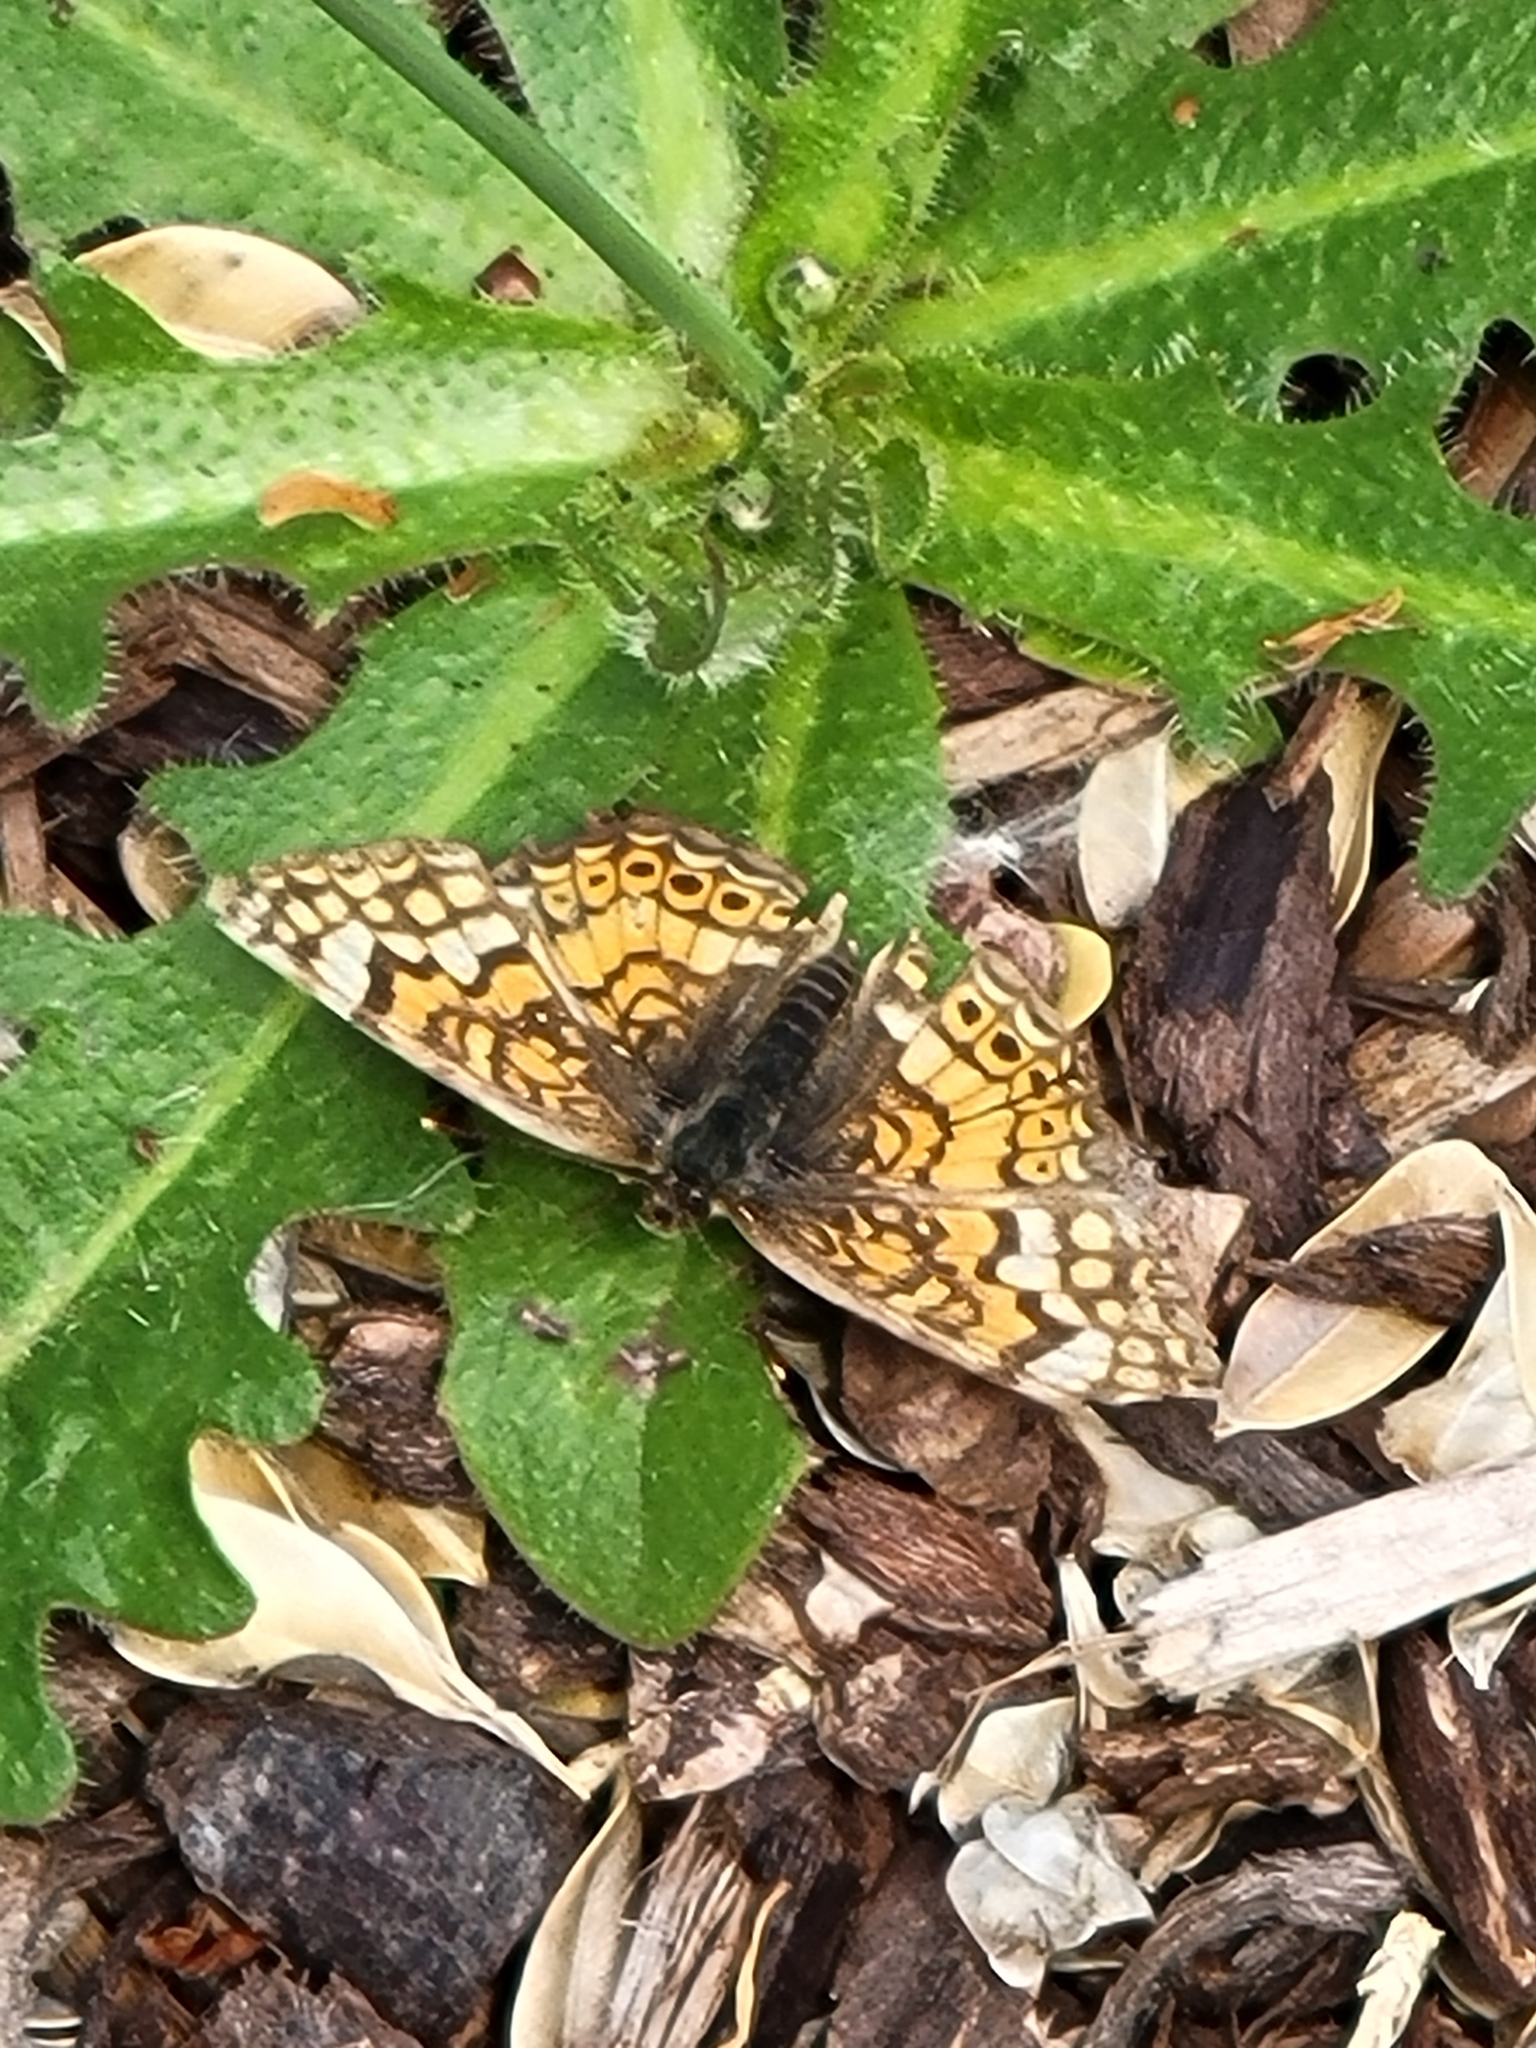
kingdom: Animalia
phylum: Arthropoda
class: Insecta
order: Lepidoptera
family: Nymphalidae
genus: Eresia
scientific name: Eresia aveyrona
